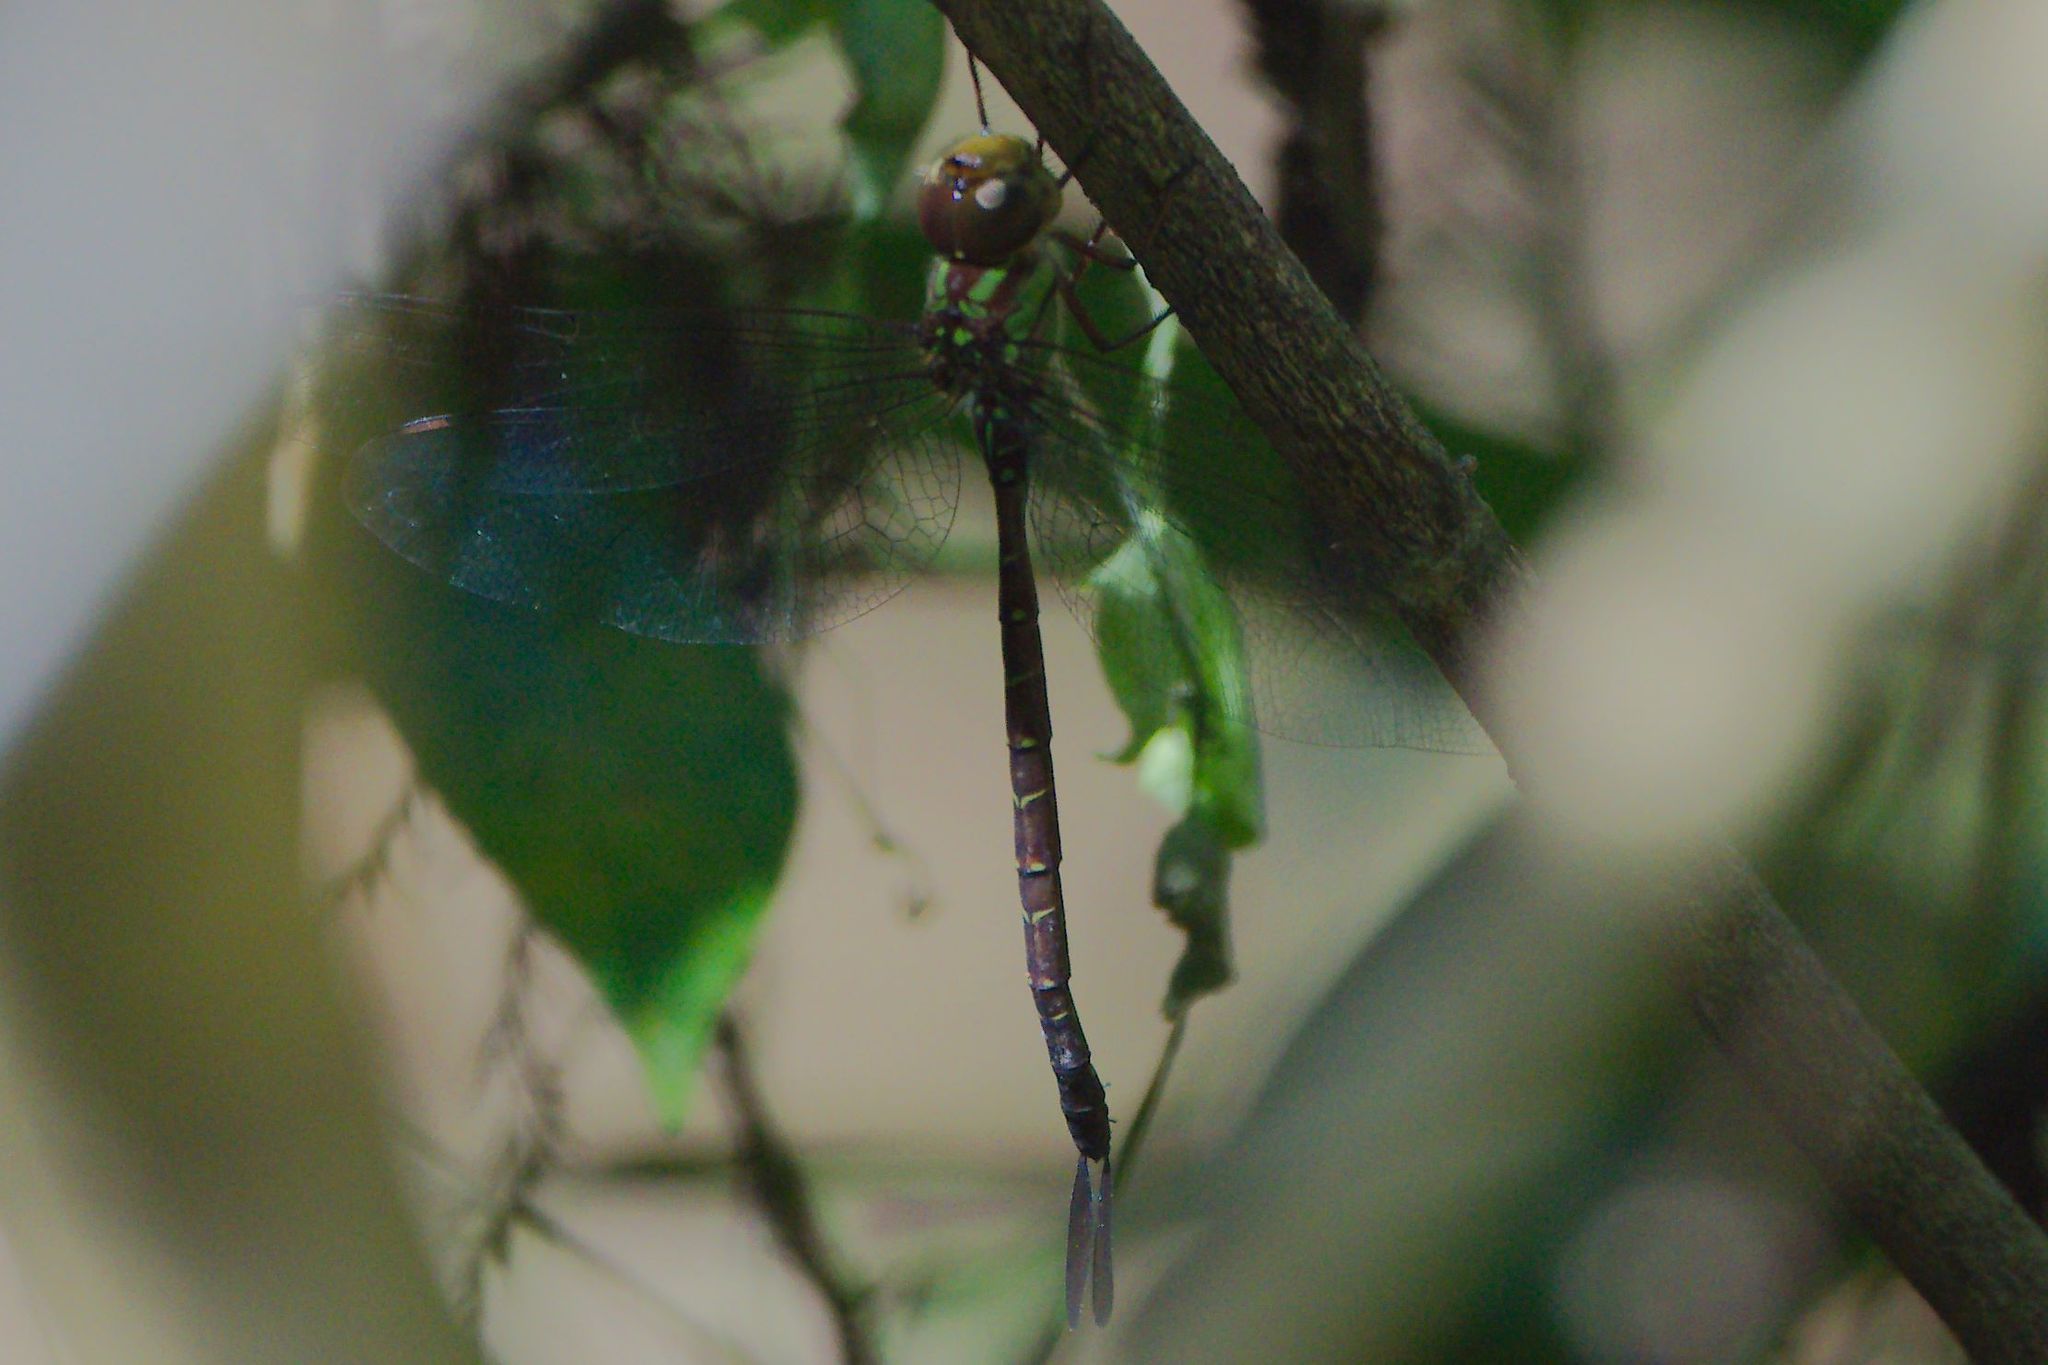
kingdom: Animalia
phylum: Arthropoda
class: Insecta
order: Odonata
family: Aeshnidae
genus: Triacanthagyna
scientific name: Triacanthagyna trifida
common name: Phantom darner
